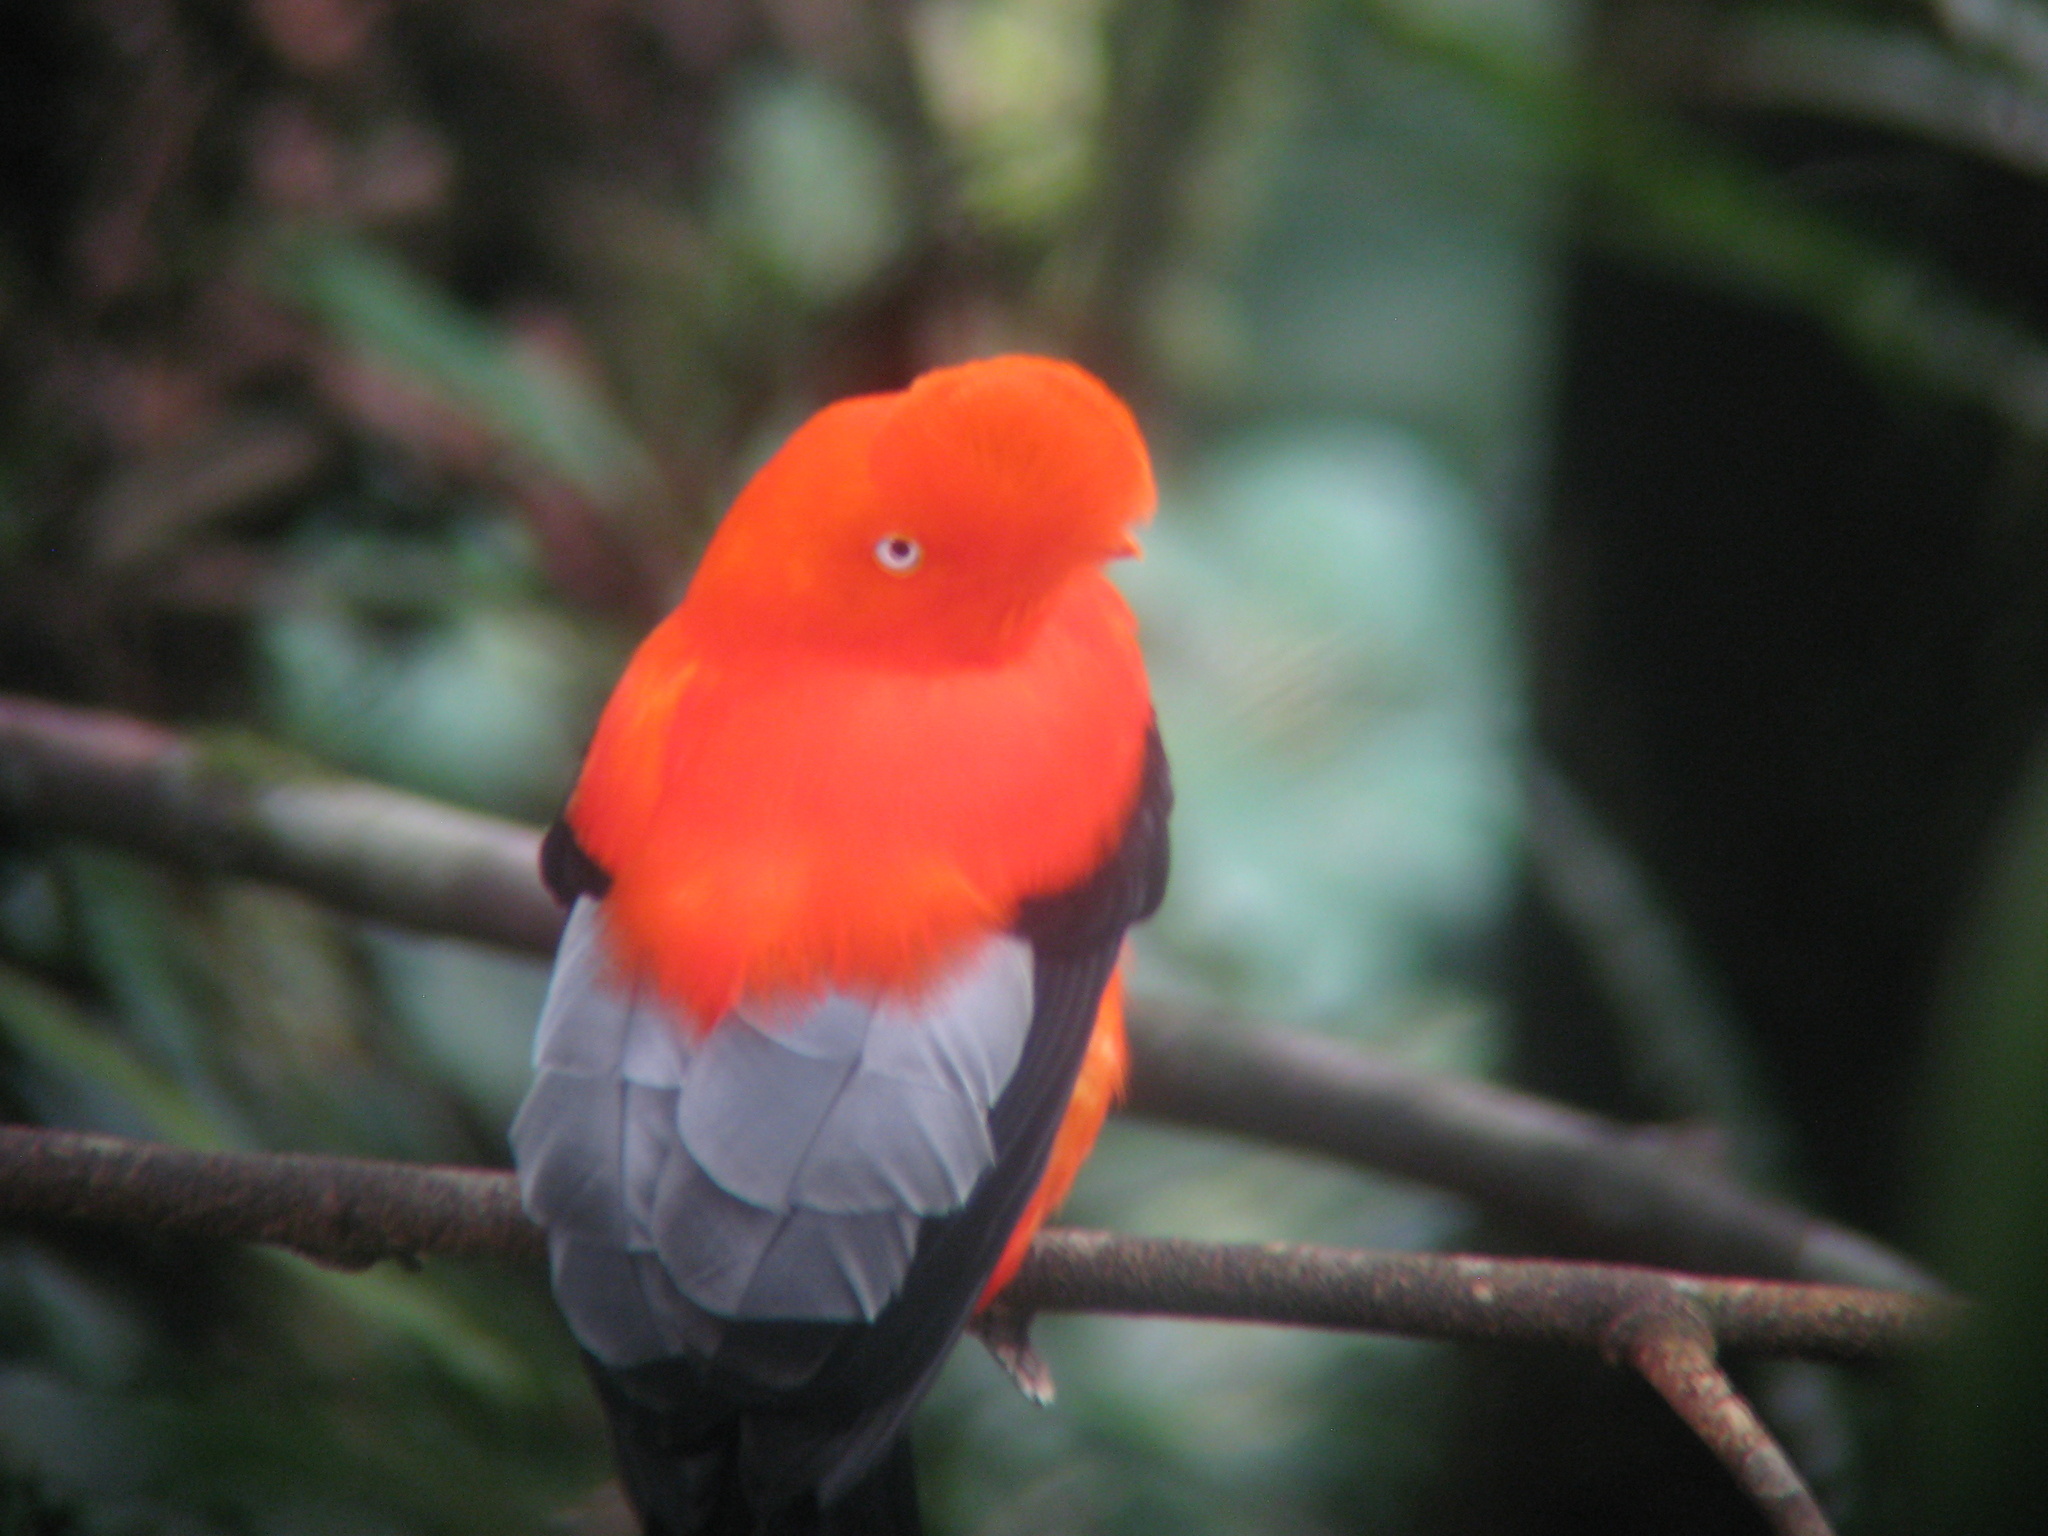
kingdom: Animalia
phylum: Chordata
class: Aves
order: Passeriformes
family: Cotingidae
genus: Rupicola
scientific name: Rupicola peruvianus
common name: Andean cock-of-the-rock
